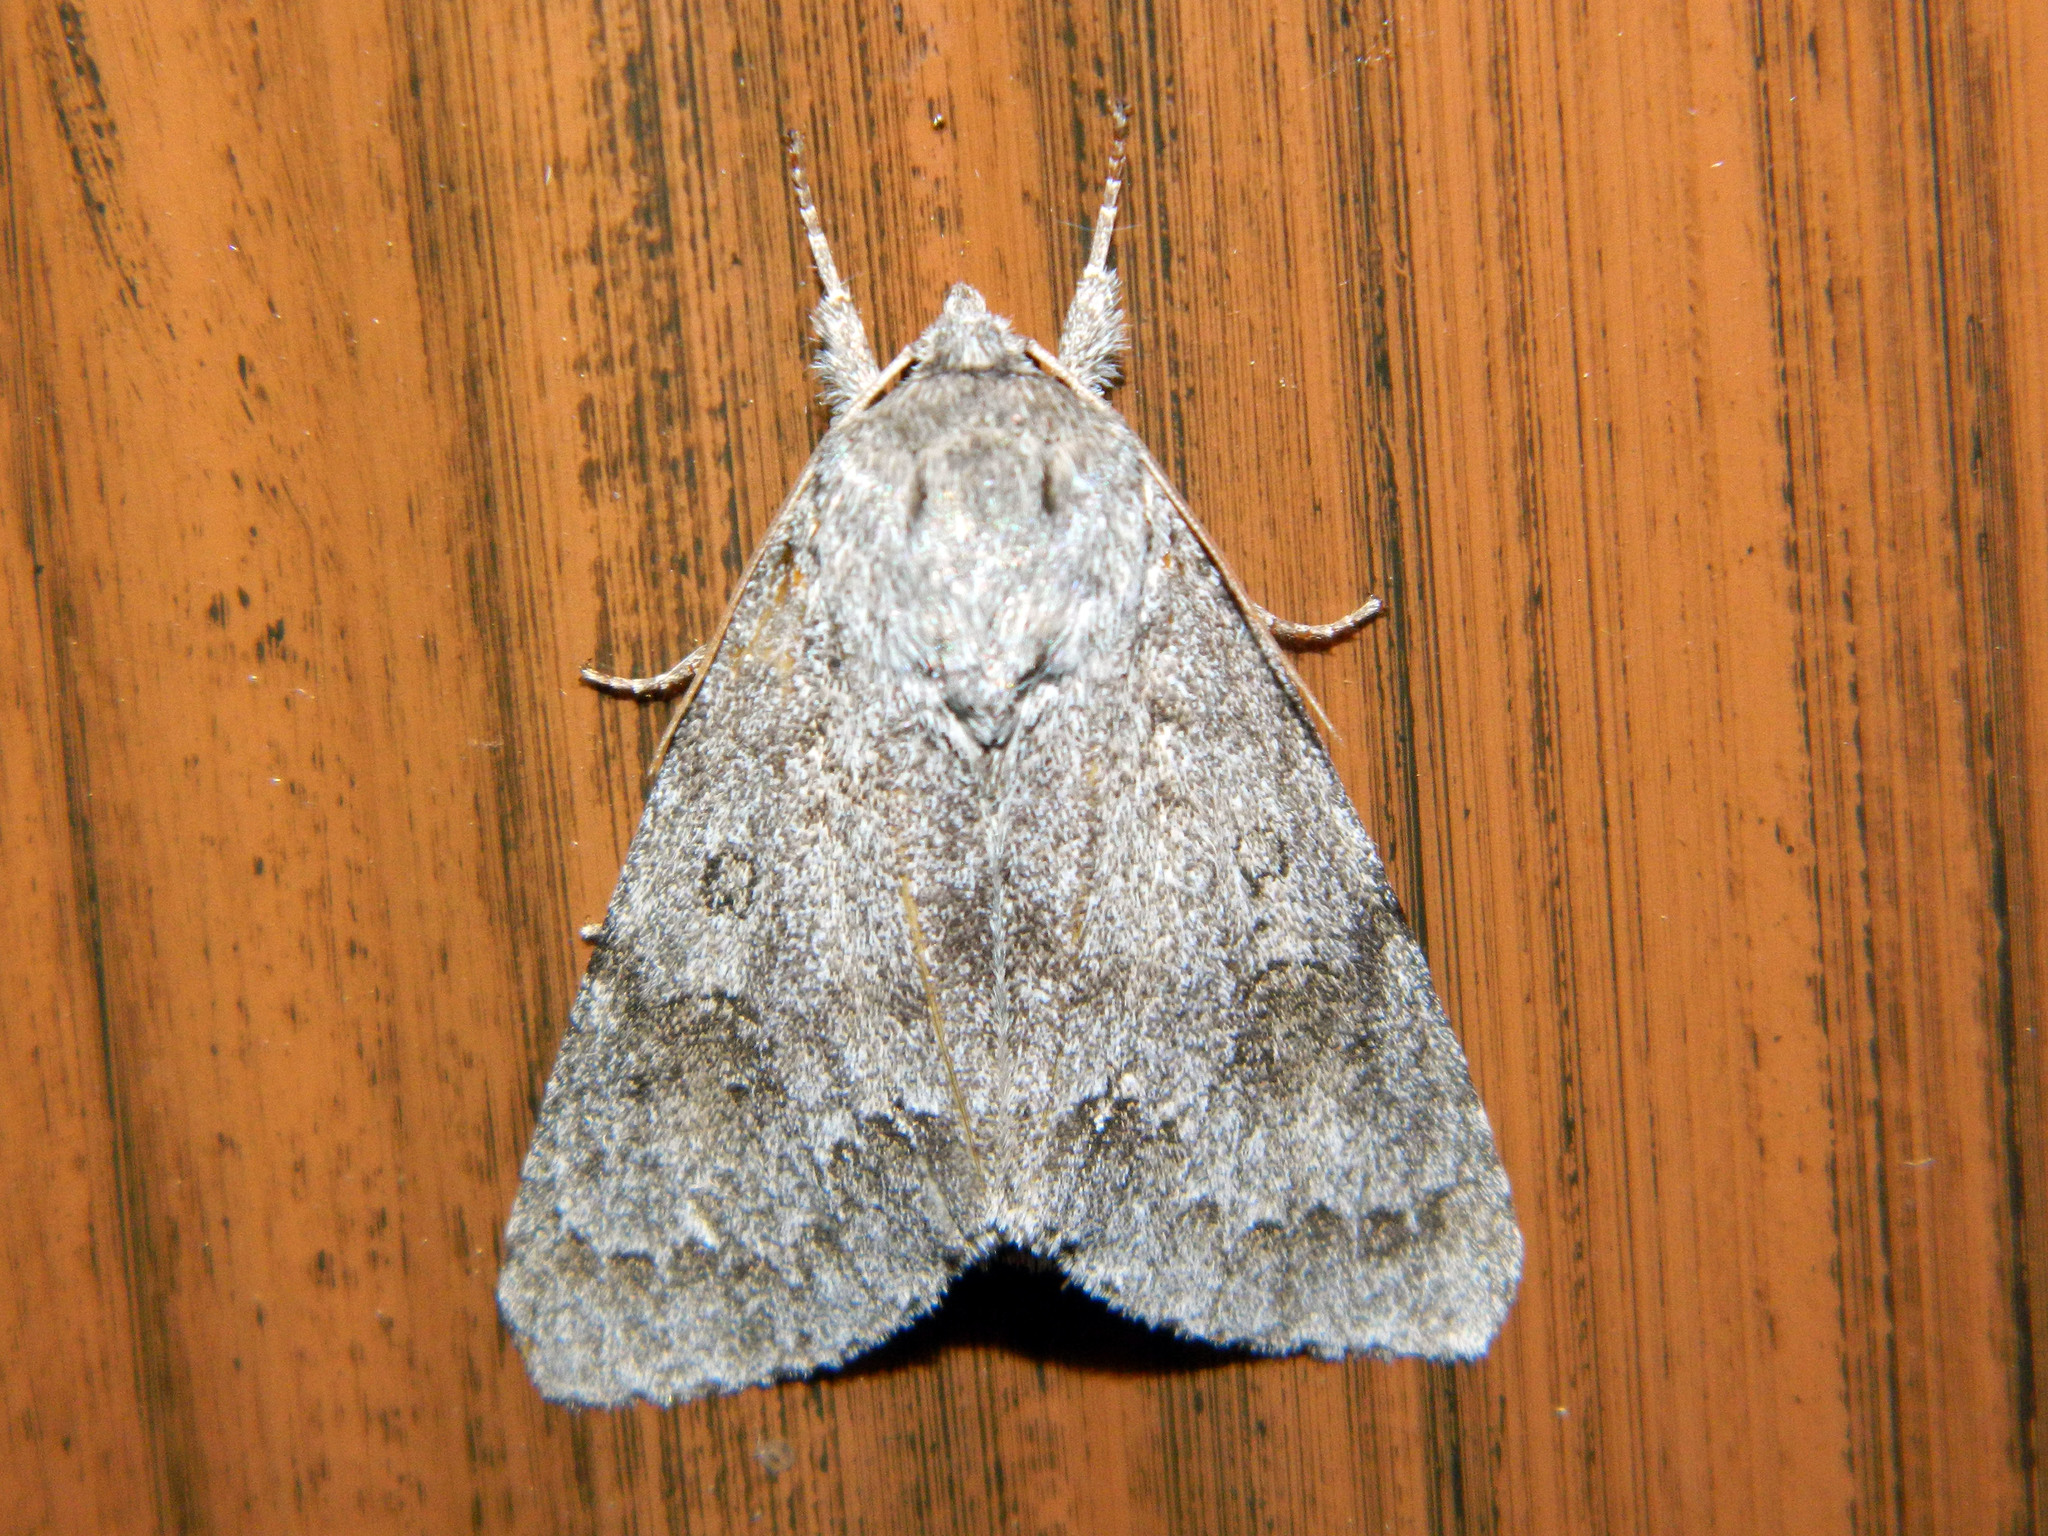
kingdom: Animalia
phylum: Arthropoda
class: Insecta
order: Lepidoptera
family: Noctuidae
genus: Acronicta
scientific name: Acronicta insita
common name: Large gray dagger
